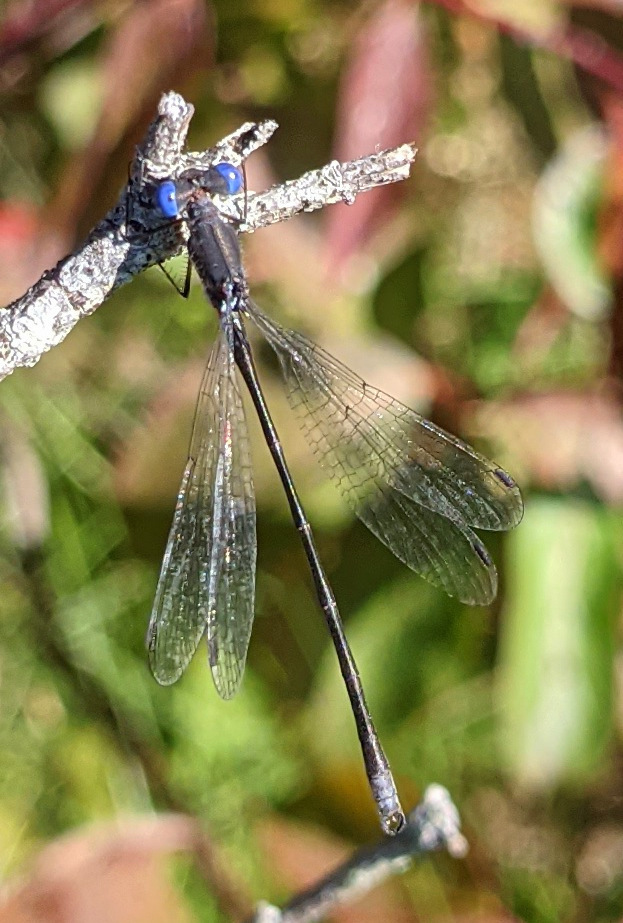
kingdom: Animalia
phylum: Arthropoda
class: Insecta
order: Odonata
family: Lestidae
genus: Lestes
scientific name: Lestes congener
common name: Spotted spreadwing
